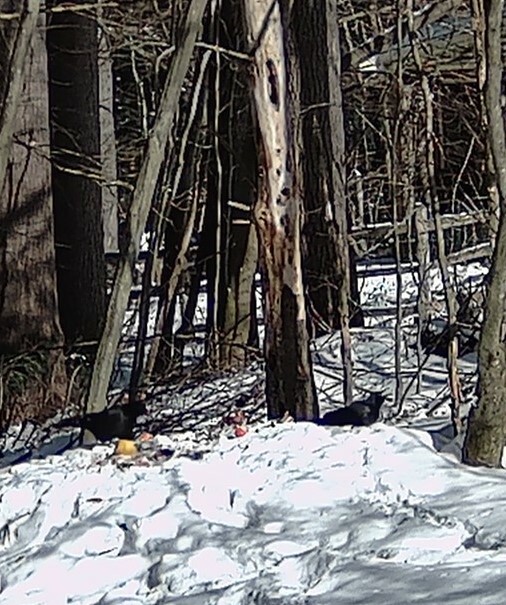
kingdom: Animalia
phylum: Chordata
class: Aves
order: Passeriformes
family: Corvidae
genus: Corvus
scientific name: Corvus brachyrhynchos
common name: American crow
